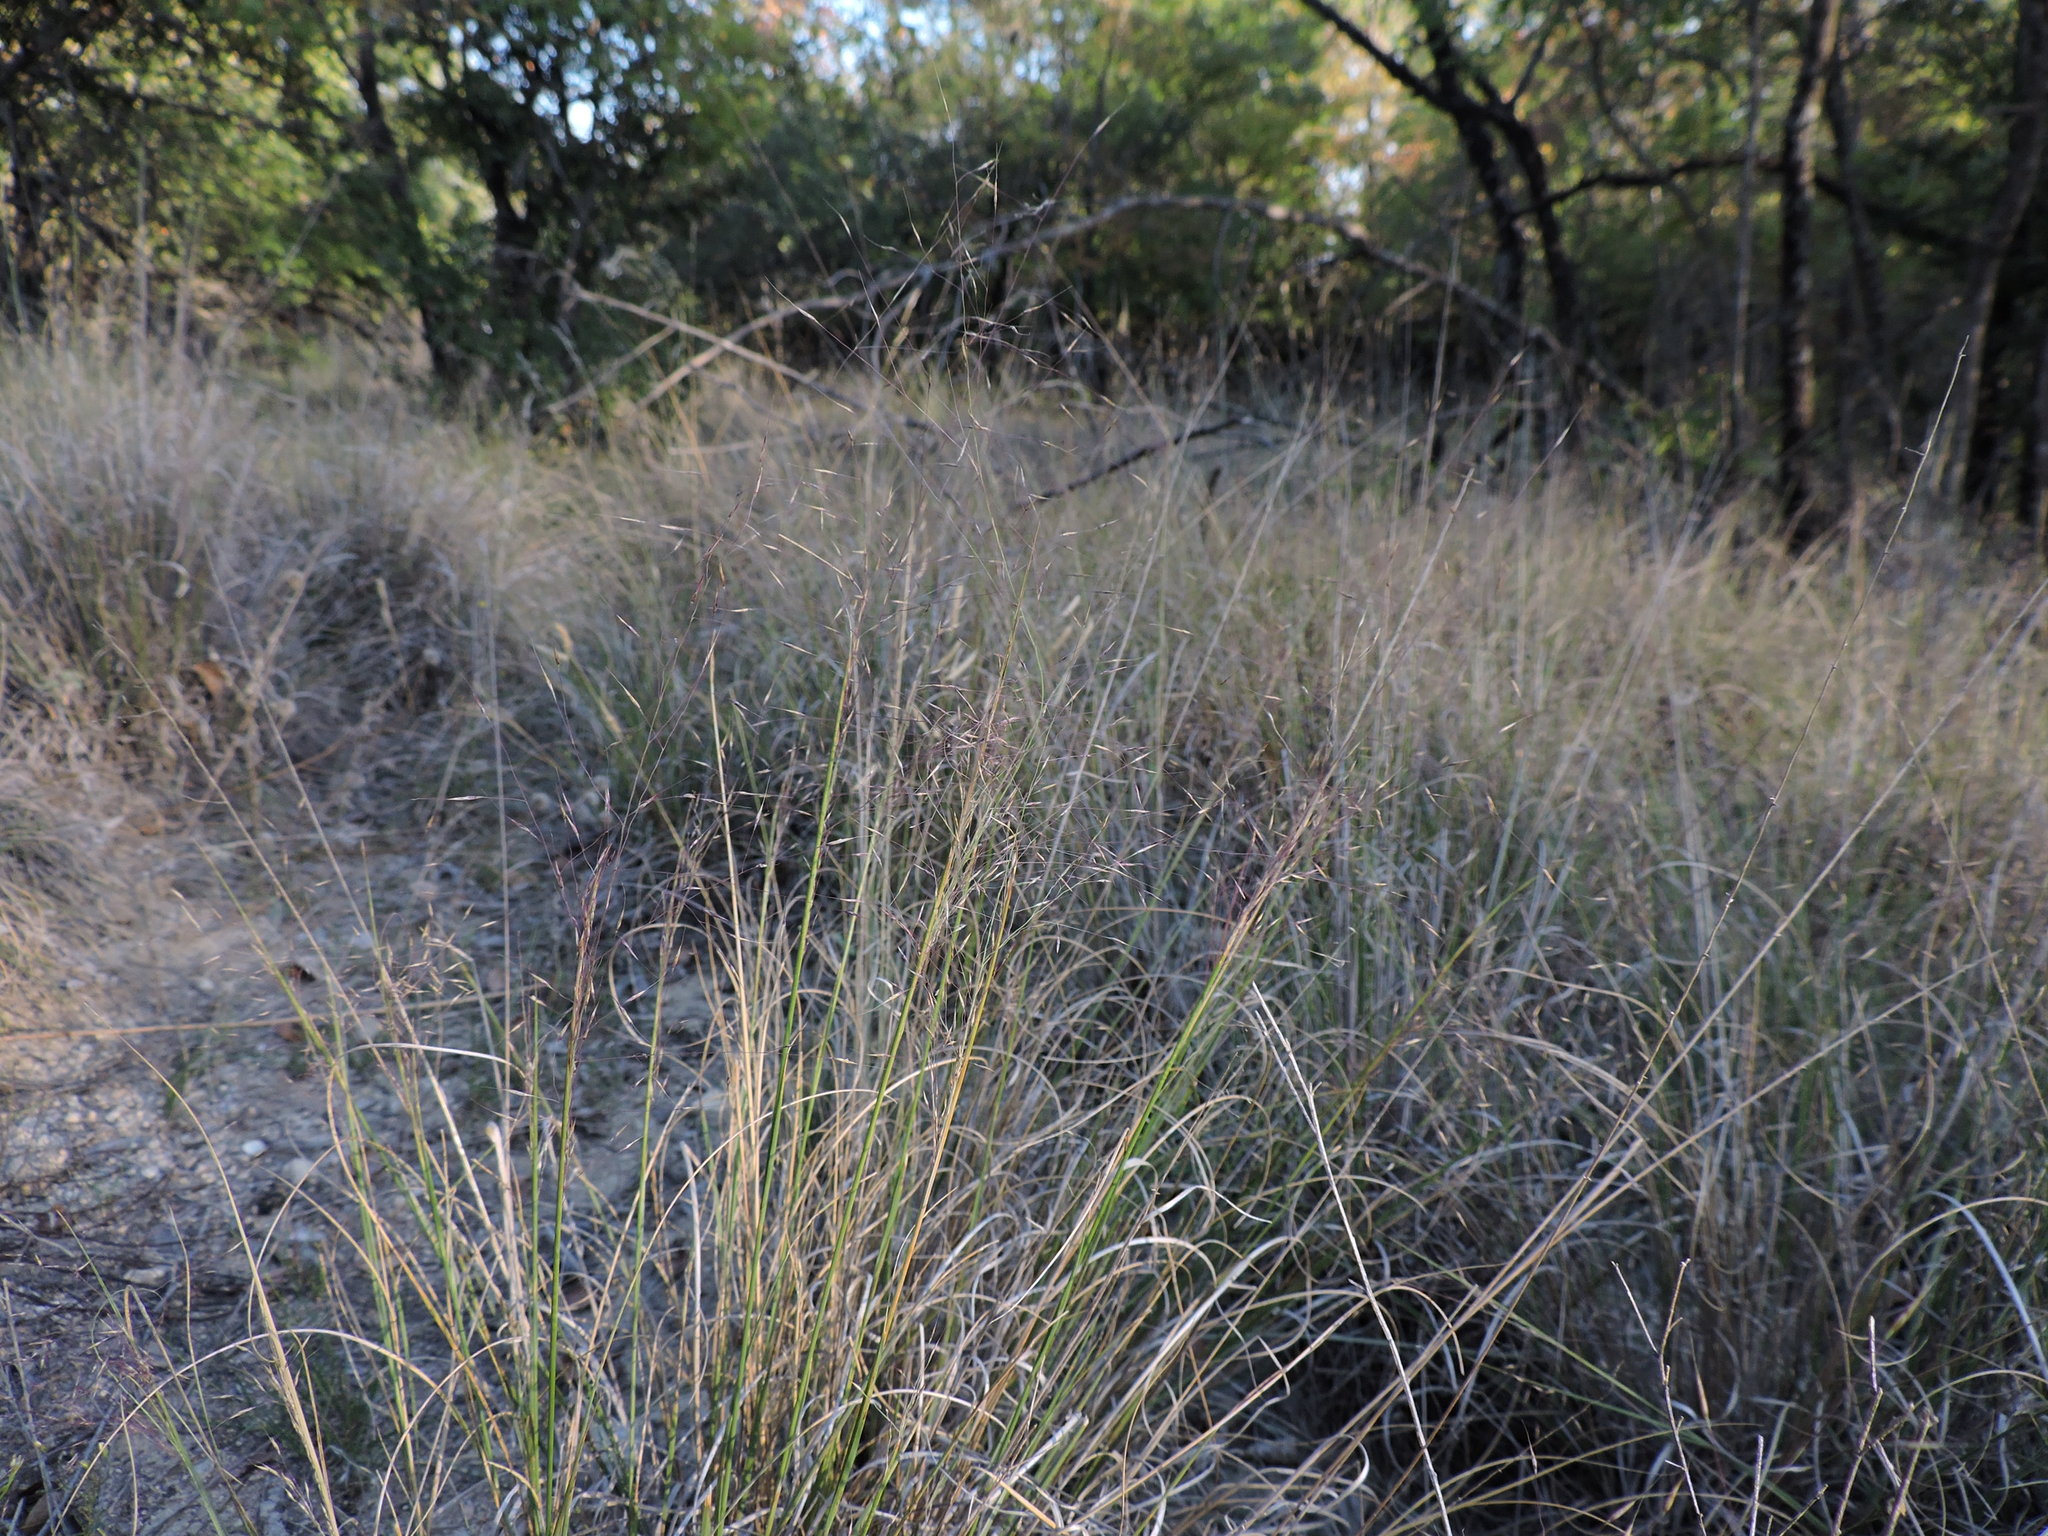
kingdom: Plantae
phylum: Tracheophyta
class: Liliopsida
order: Poales
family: Poaceae
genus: Muhlenbergia
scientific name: Muhlenbergia reverchonii
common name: Seep muhly
